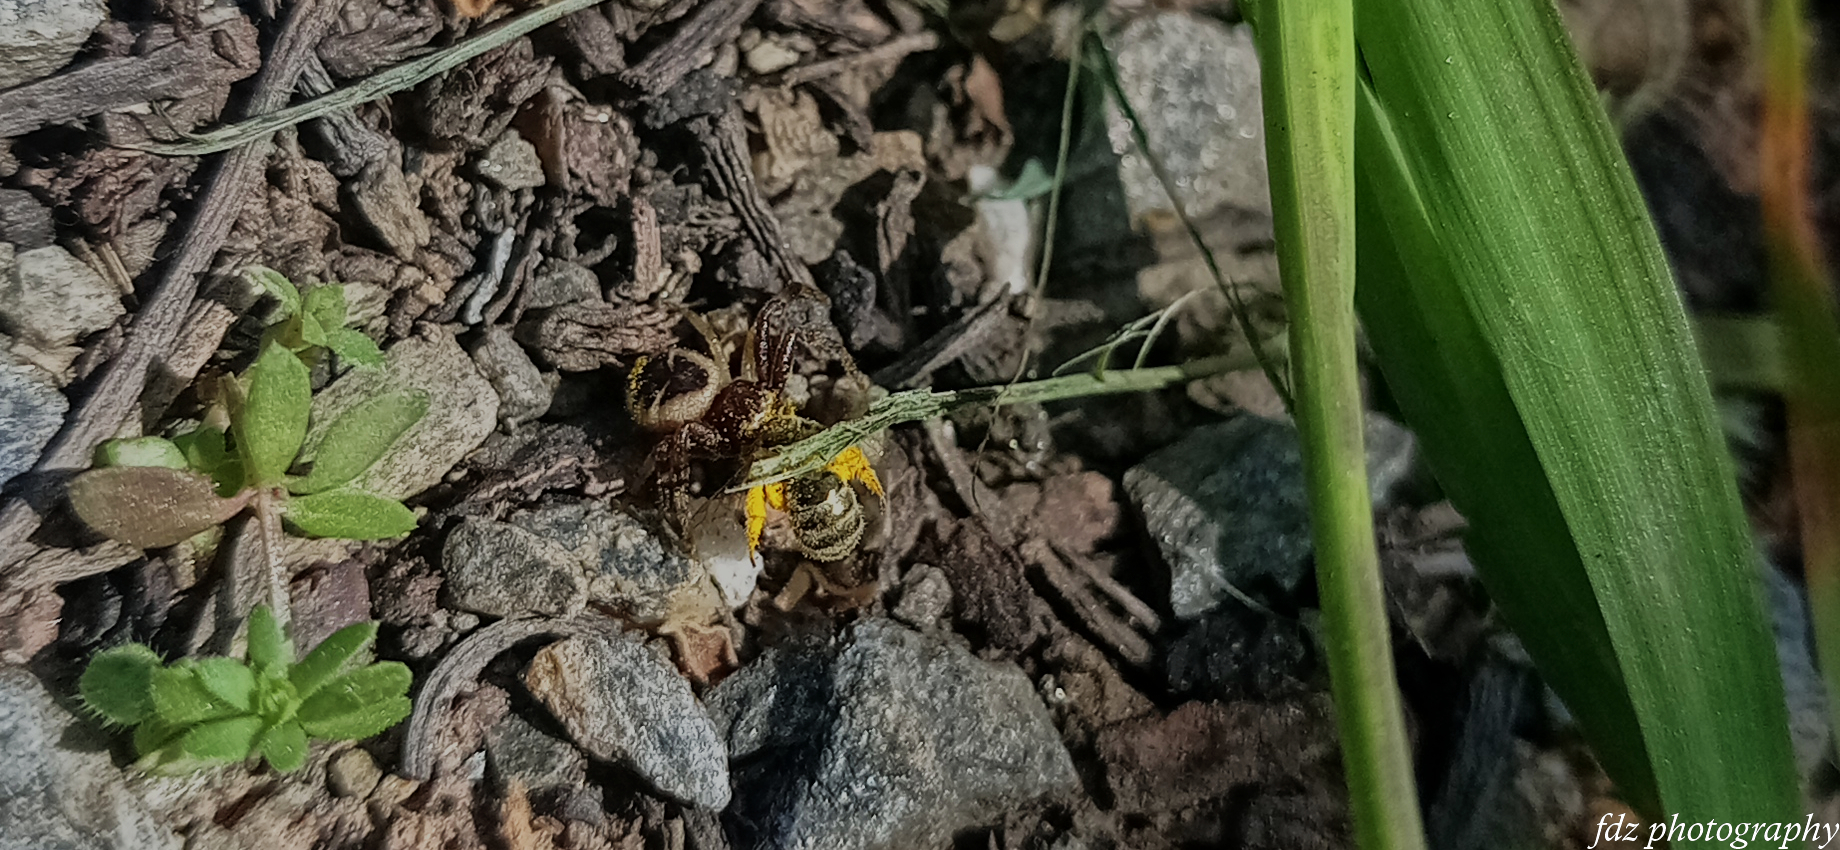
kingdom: Animalia
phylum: Arthropoda
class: Arachnida
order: Araneae
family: Thomisidae
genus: Synema
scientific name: Synema globosum
